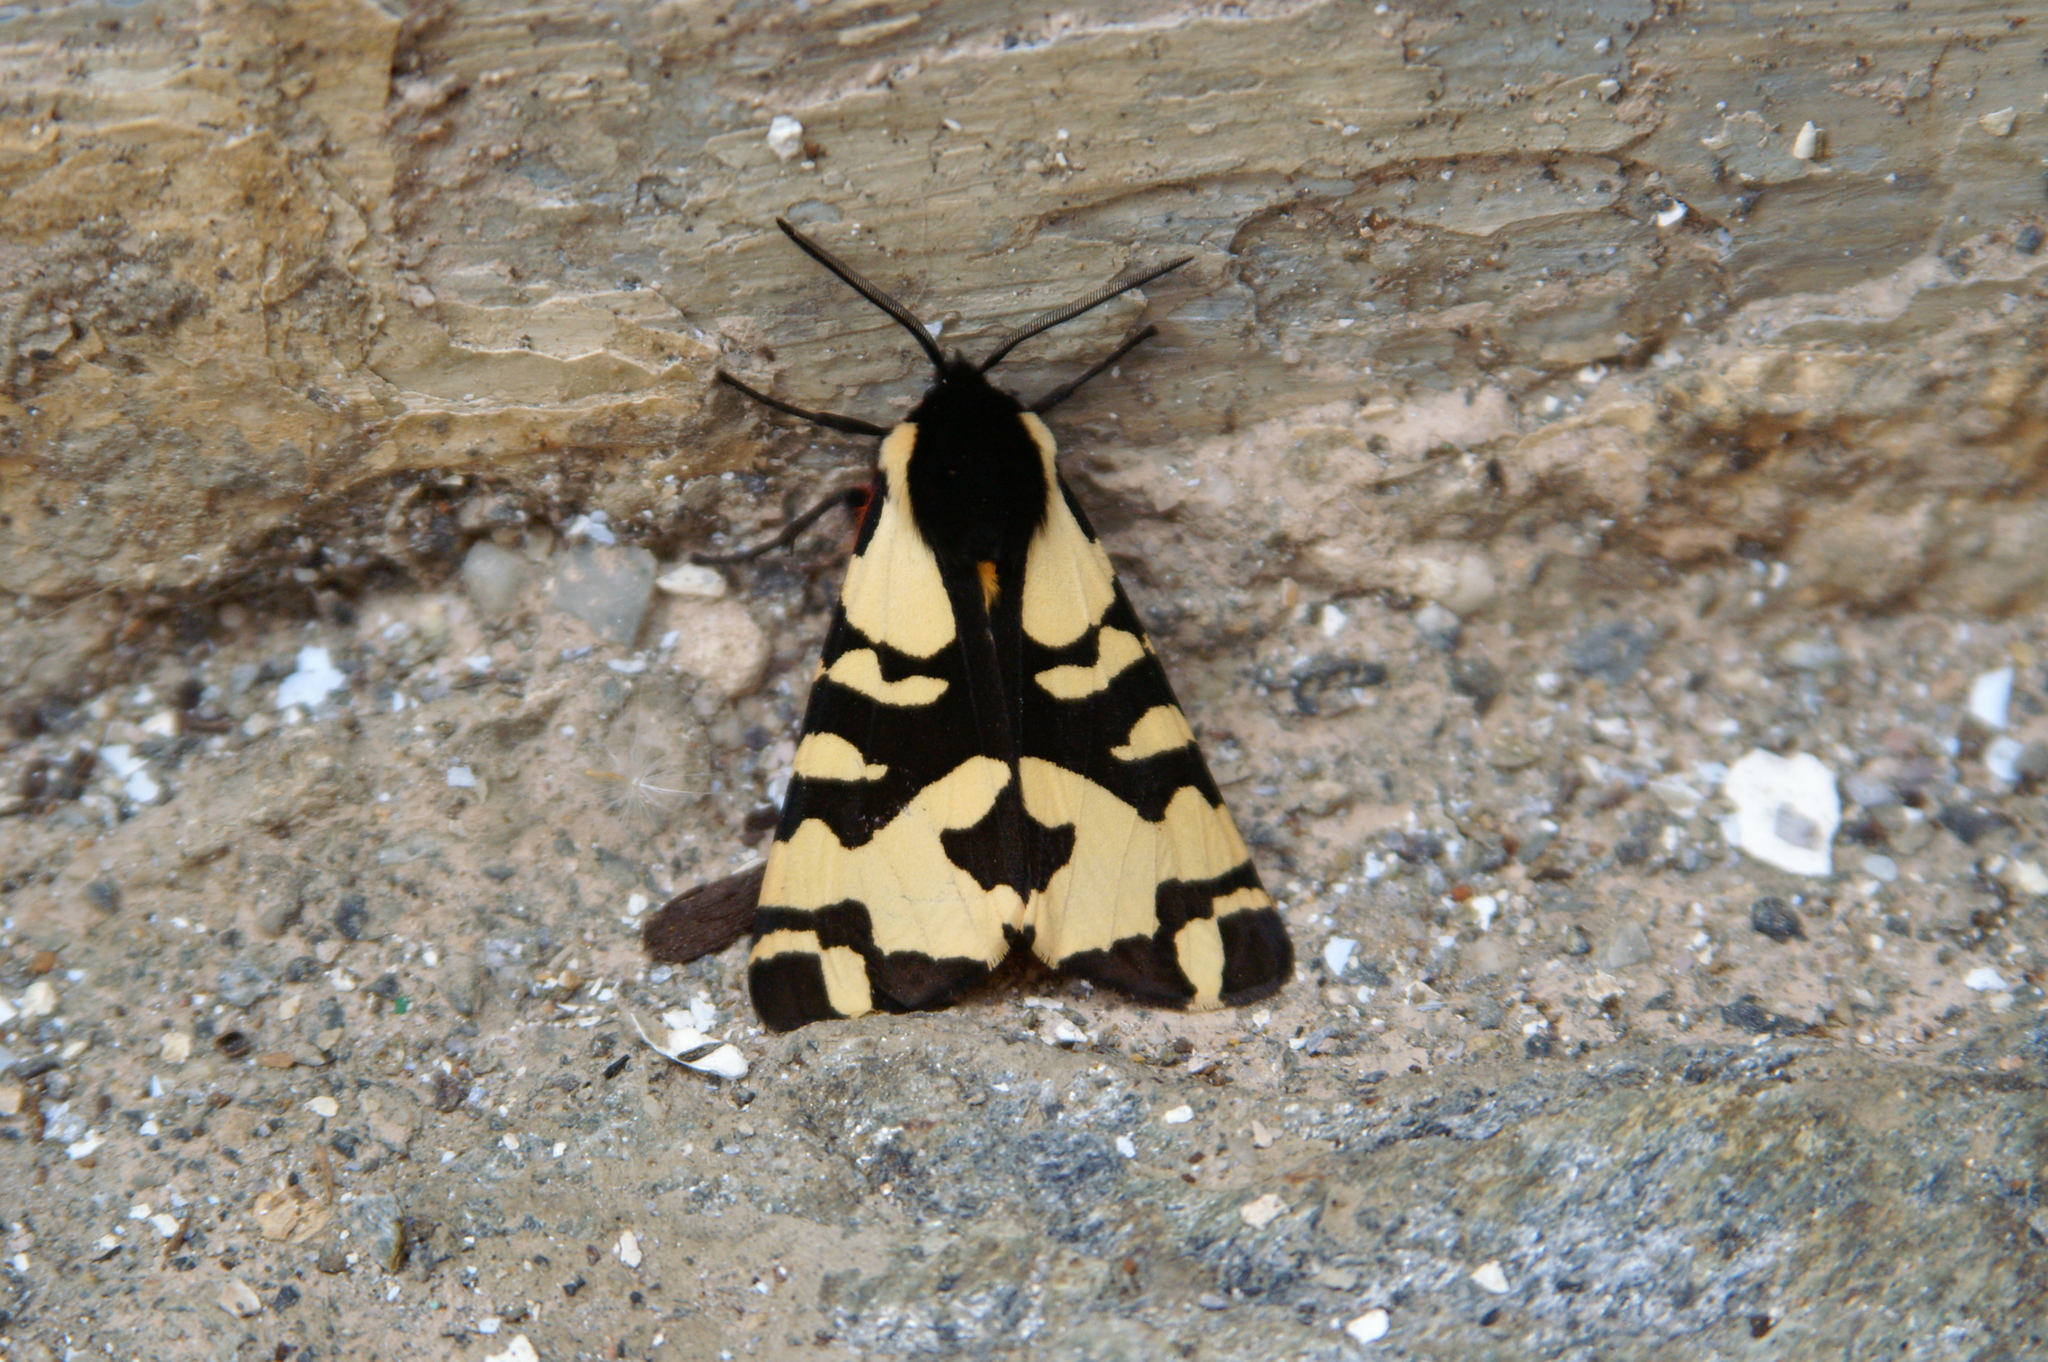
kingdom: Animalia
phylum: Arthropoda
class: Insecta
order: Lepidoptera
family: Erebidae
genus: Epicallia
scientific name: Epicallia villica
